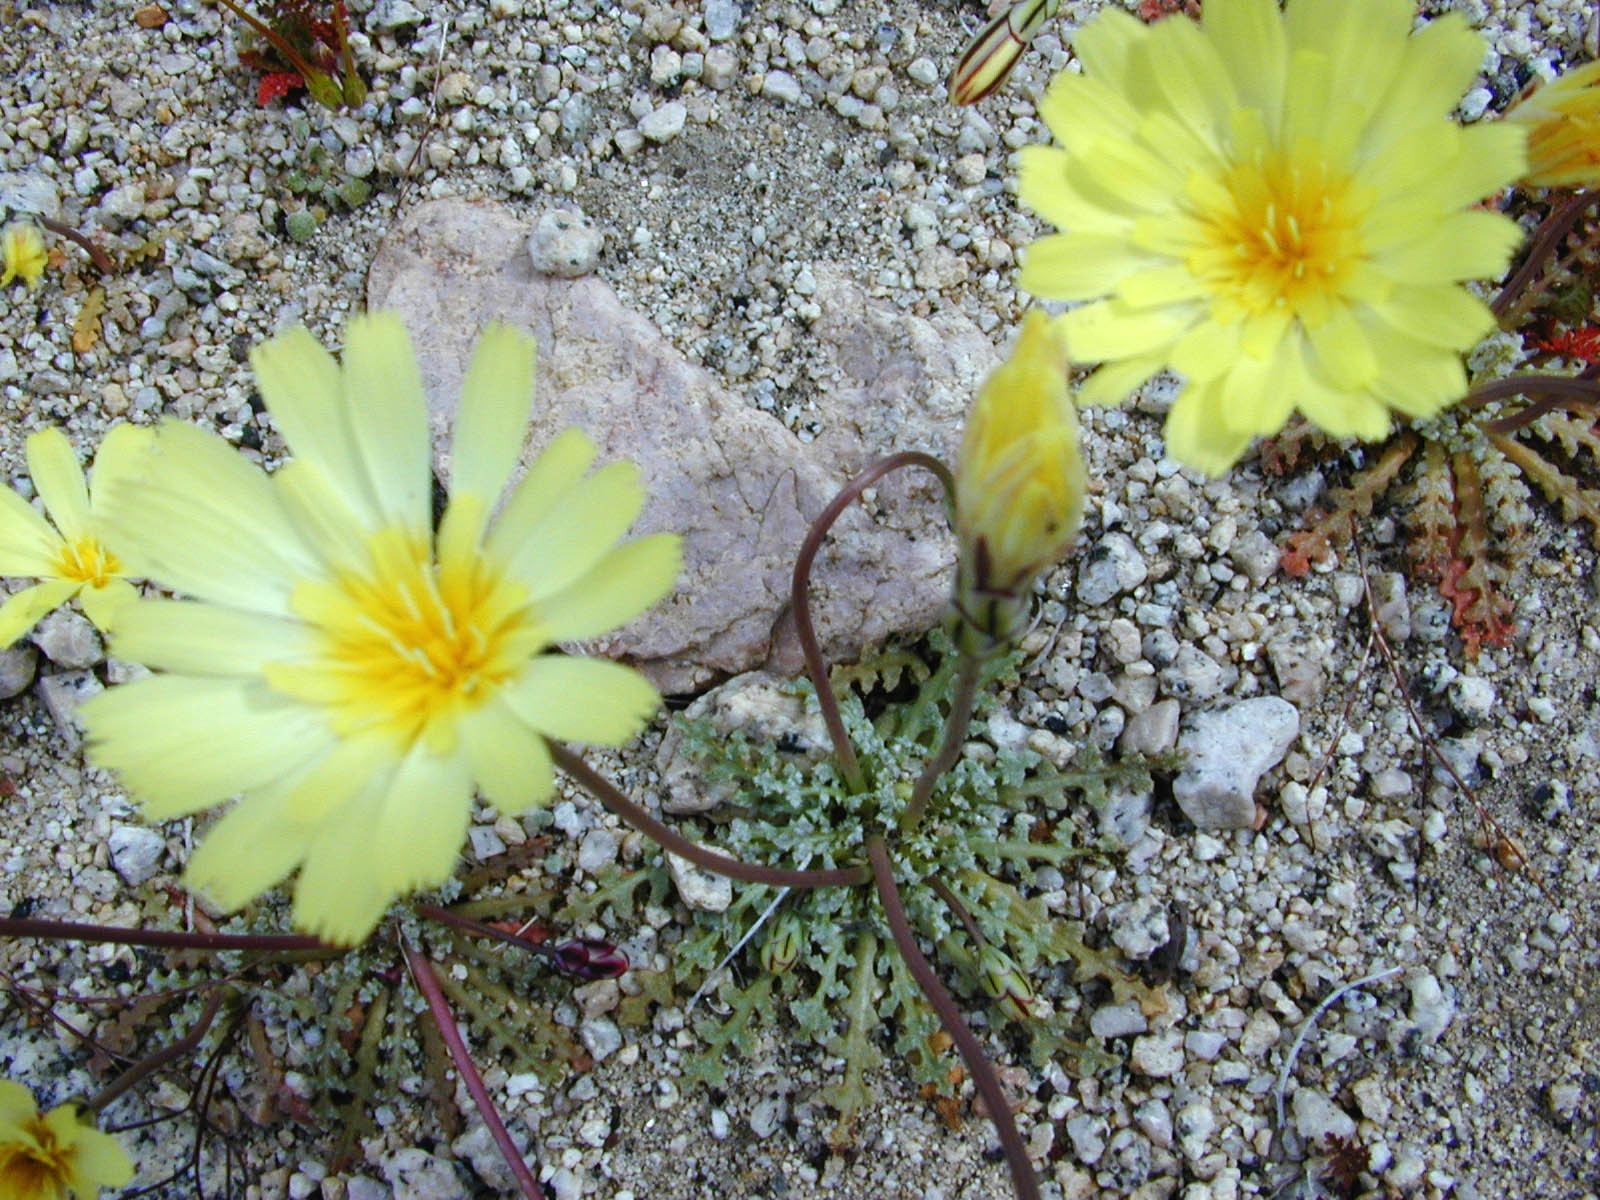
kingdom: Plantae
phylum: Tracheophyta
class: Magnoliopsida
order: Asterales
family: Asteraceae
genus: Anisocoma
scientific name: Anisocoma acaulis
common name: Scalebud
